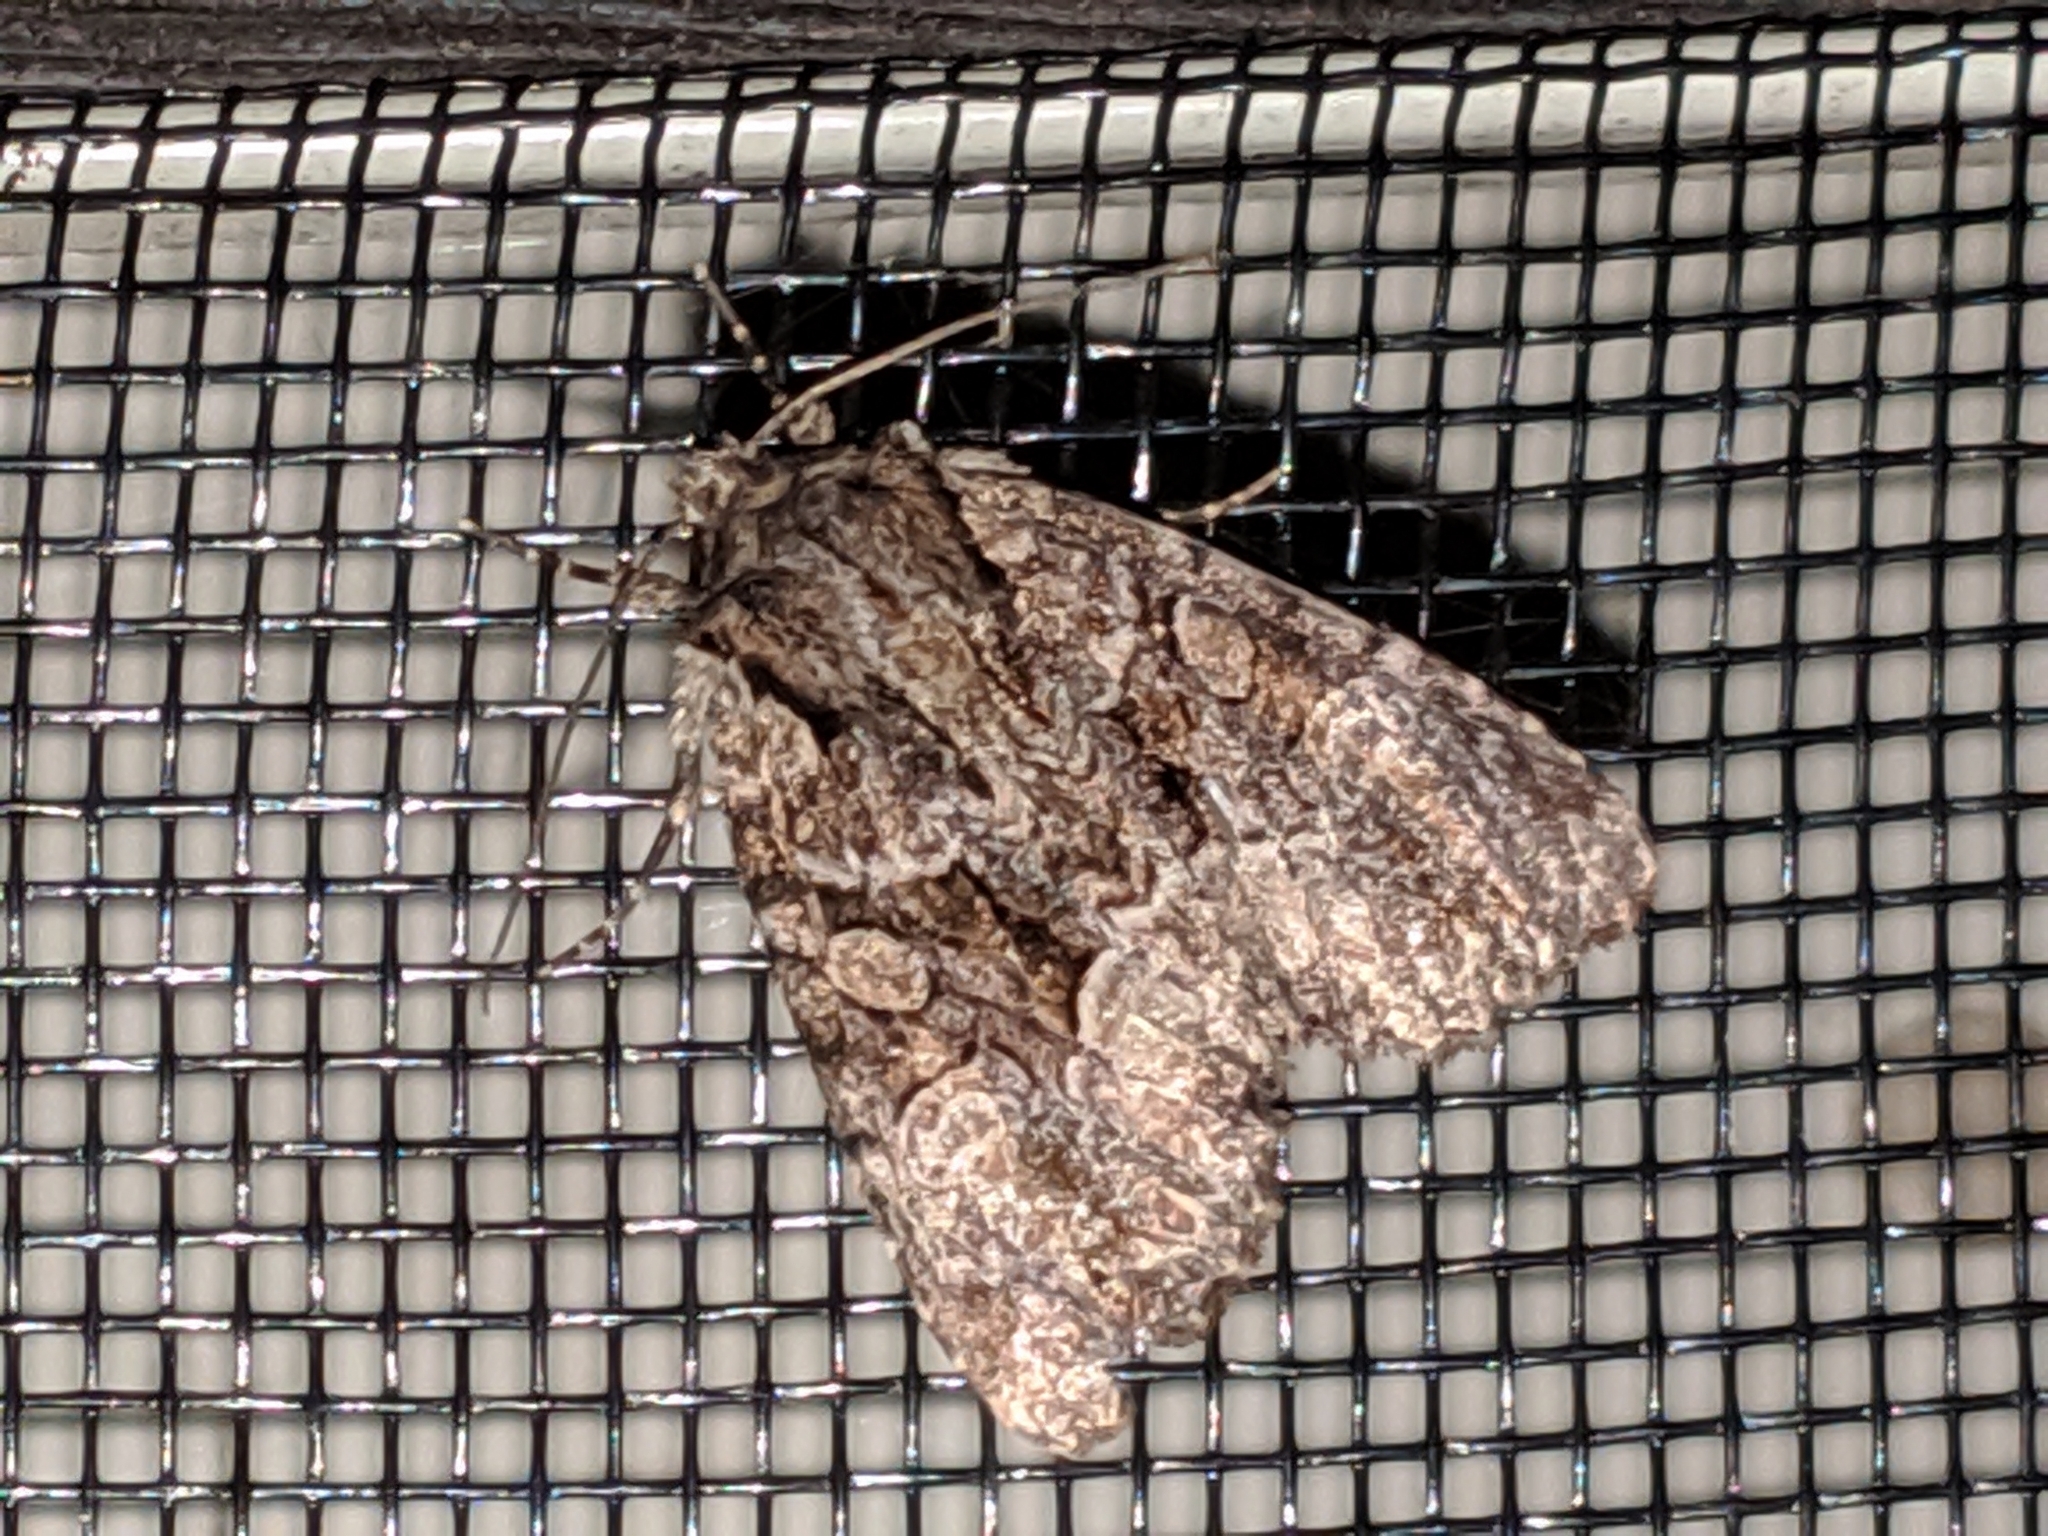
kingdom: Animalia
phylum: Arthropoda
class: Insecta
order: Lepidoptera
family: Noctuidae
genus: Platypolia
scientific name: Platypolia mactata
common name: Adorable brocade moth
